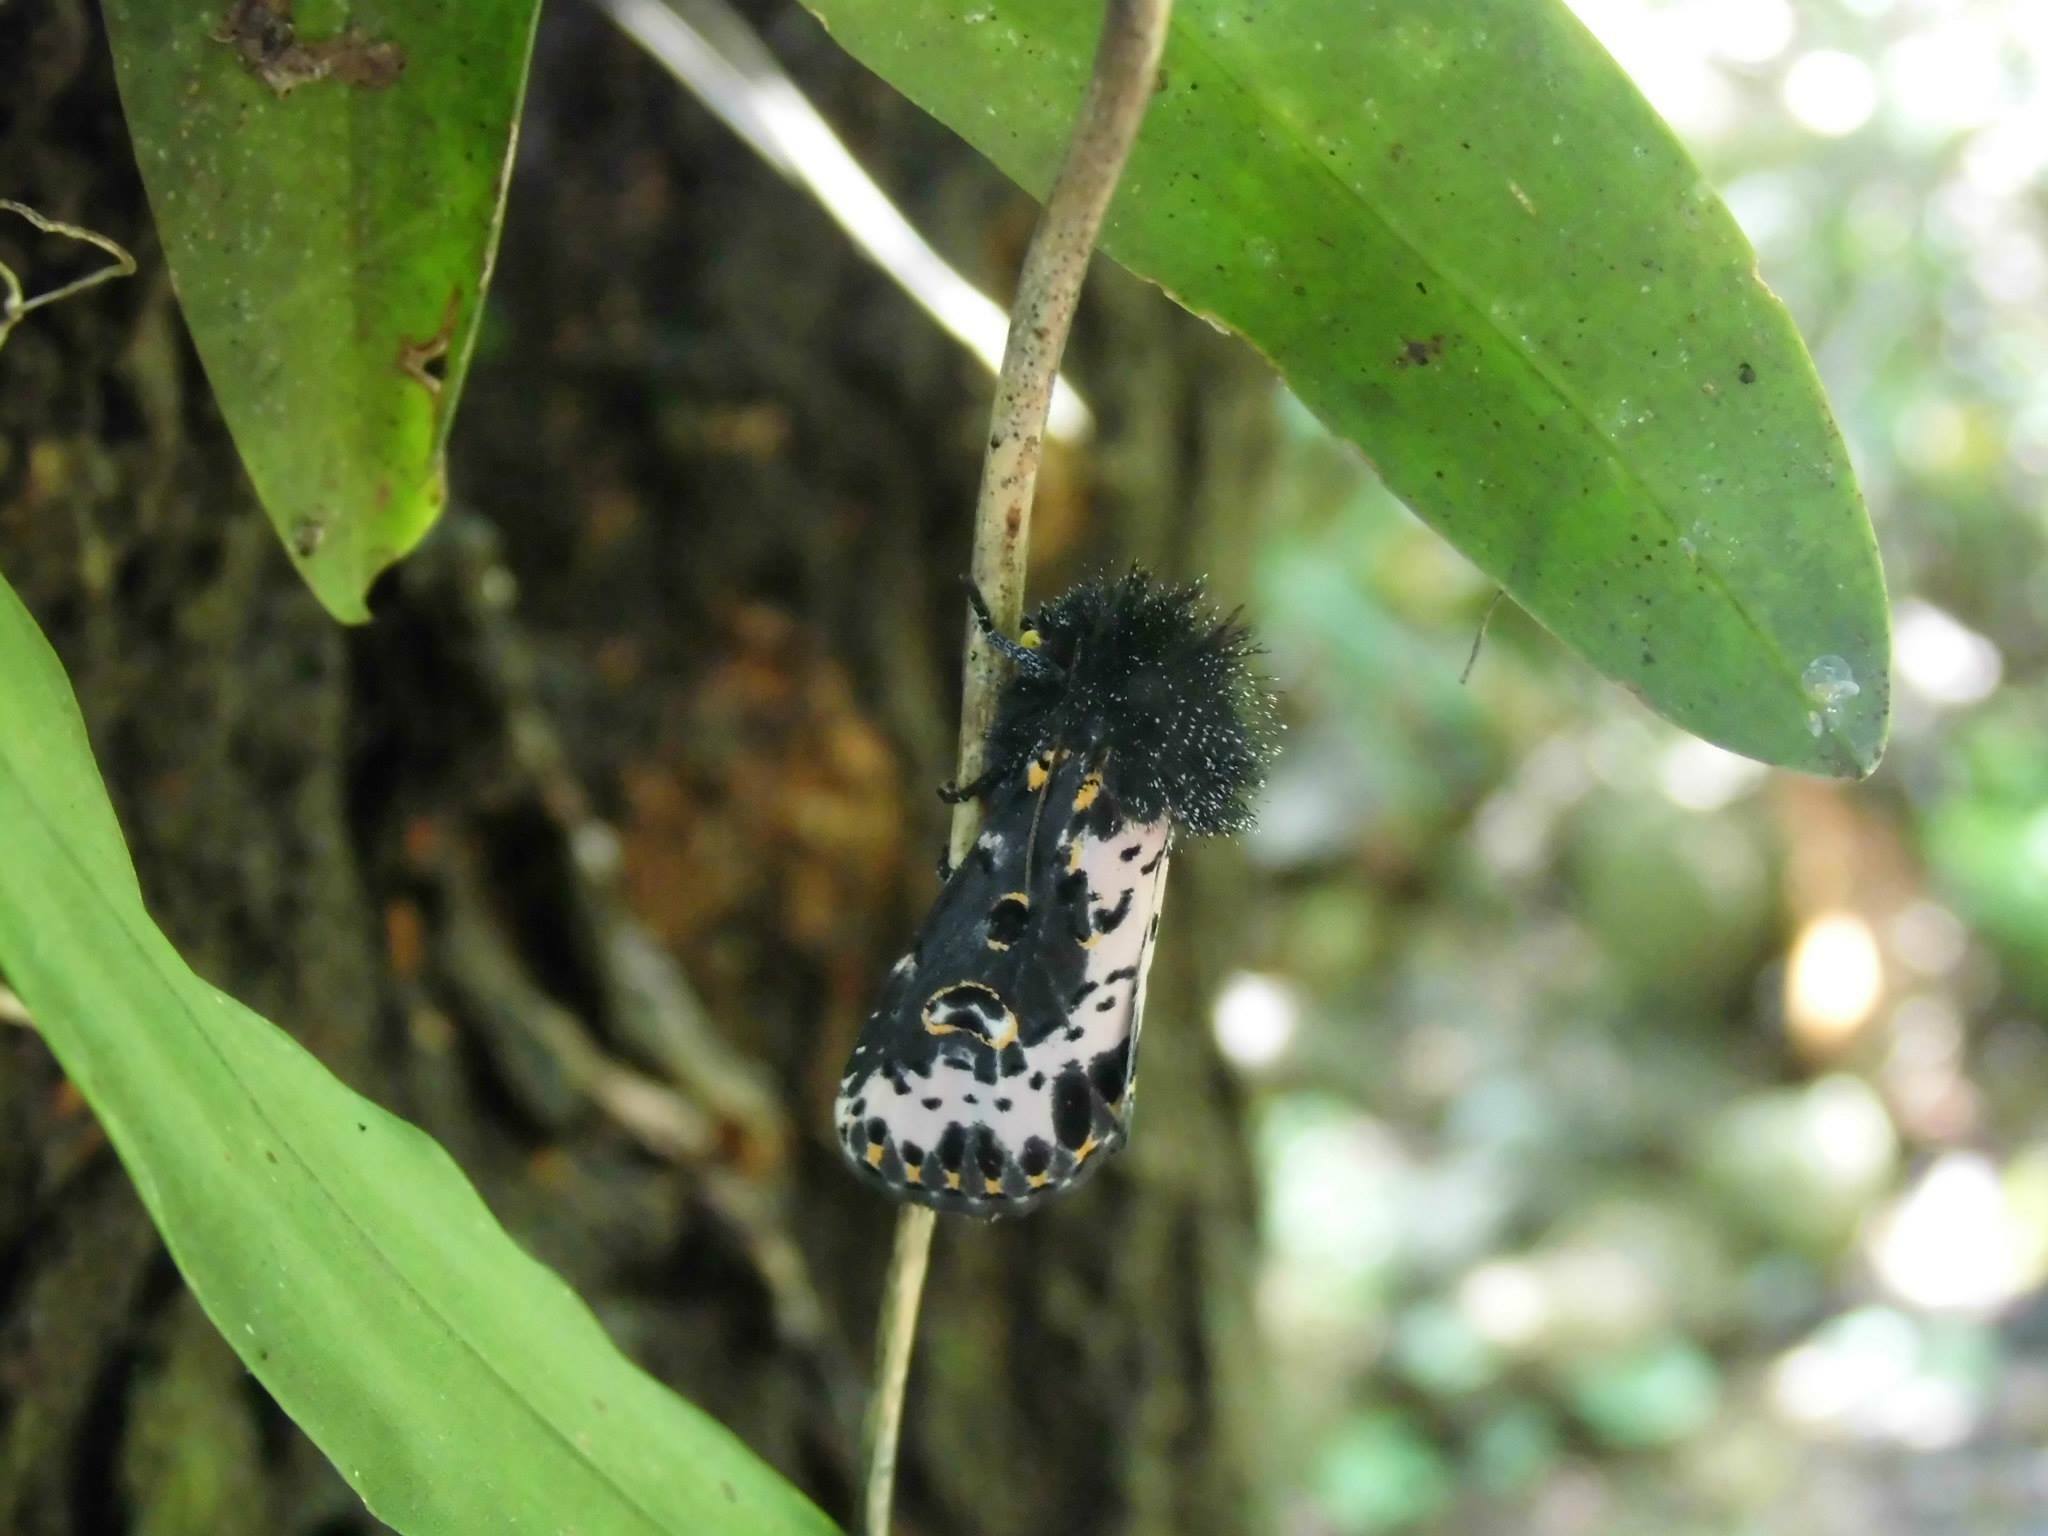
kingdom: Animalia
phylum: Arthropoda
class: Insecta
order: Lepidoptera
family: Noctuidae
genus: Xanthopastis
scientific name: Xanthopastis timais
